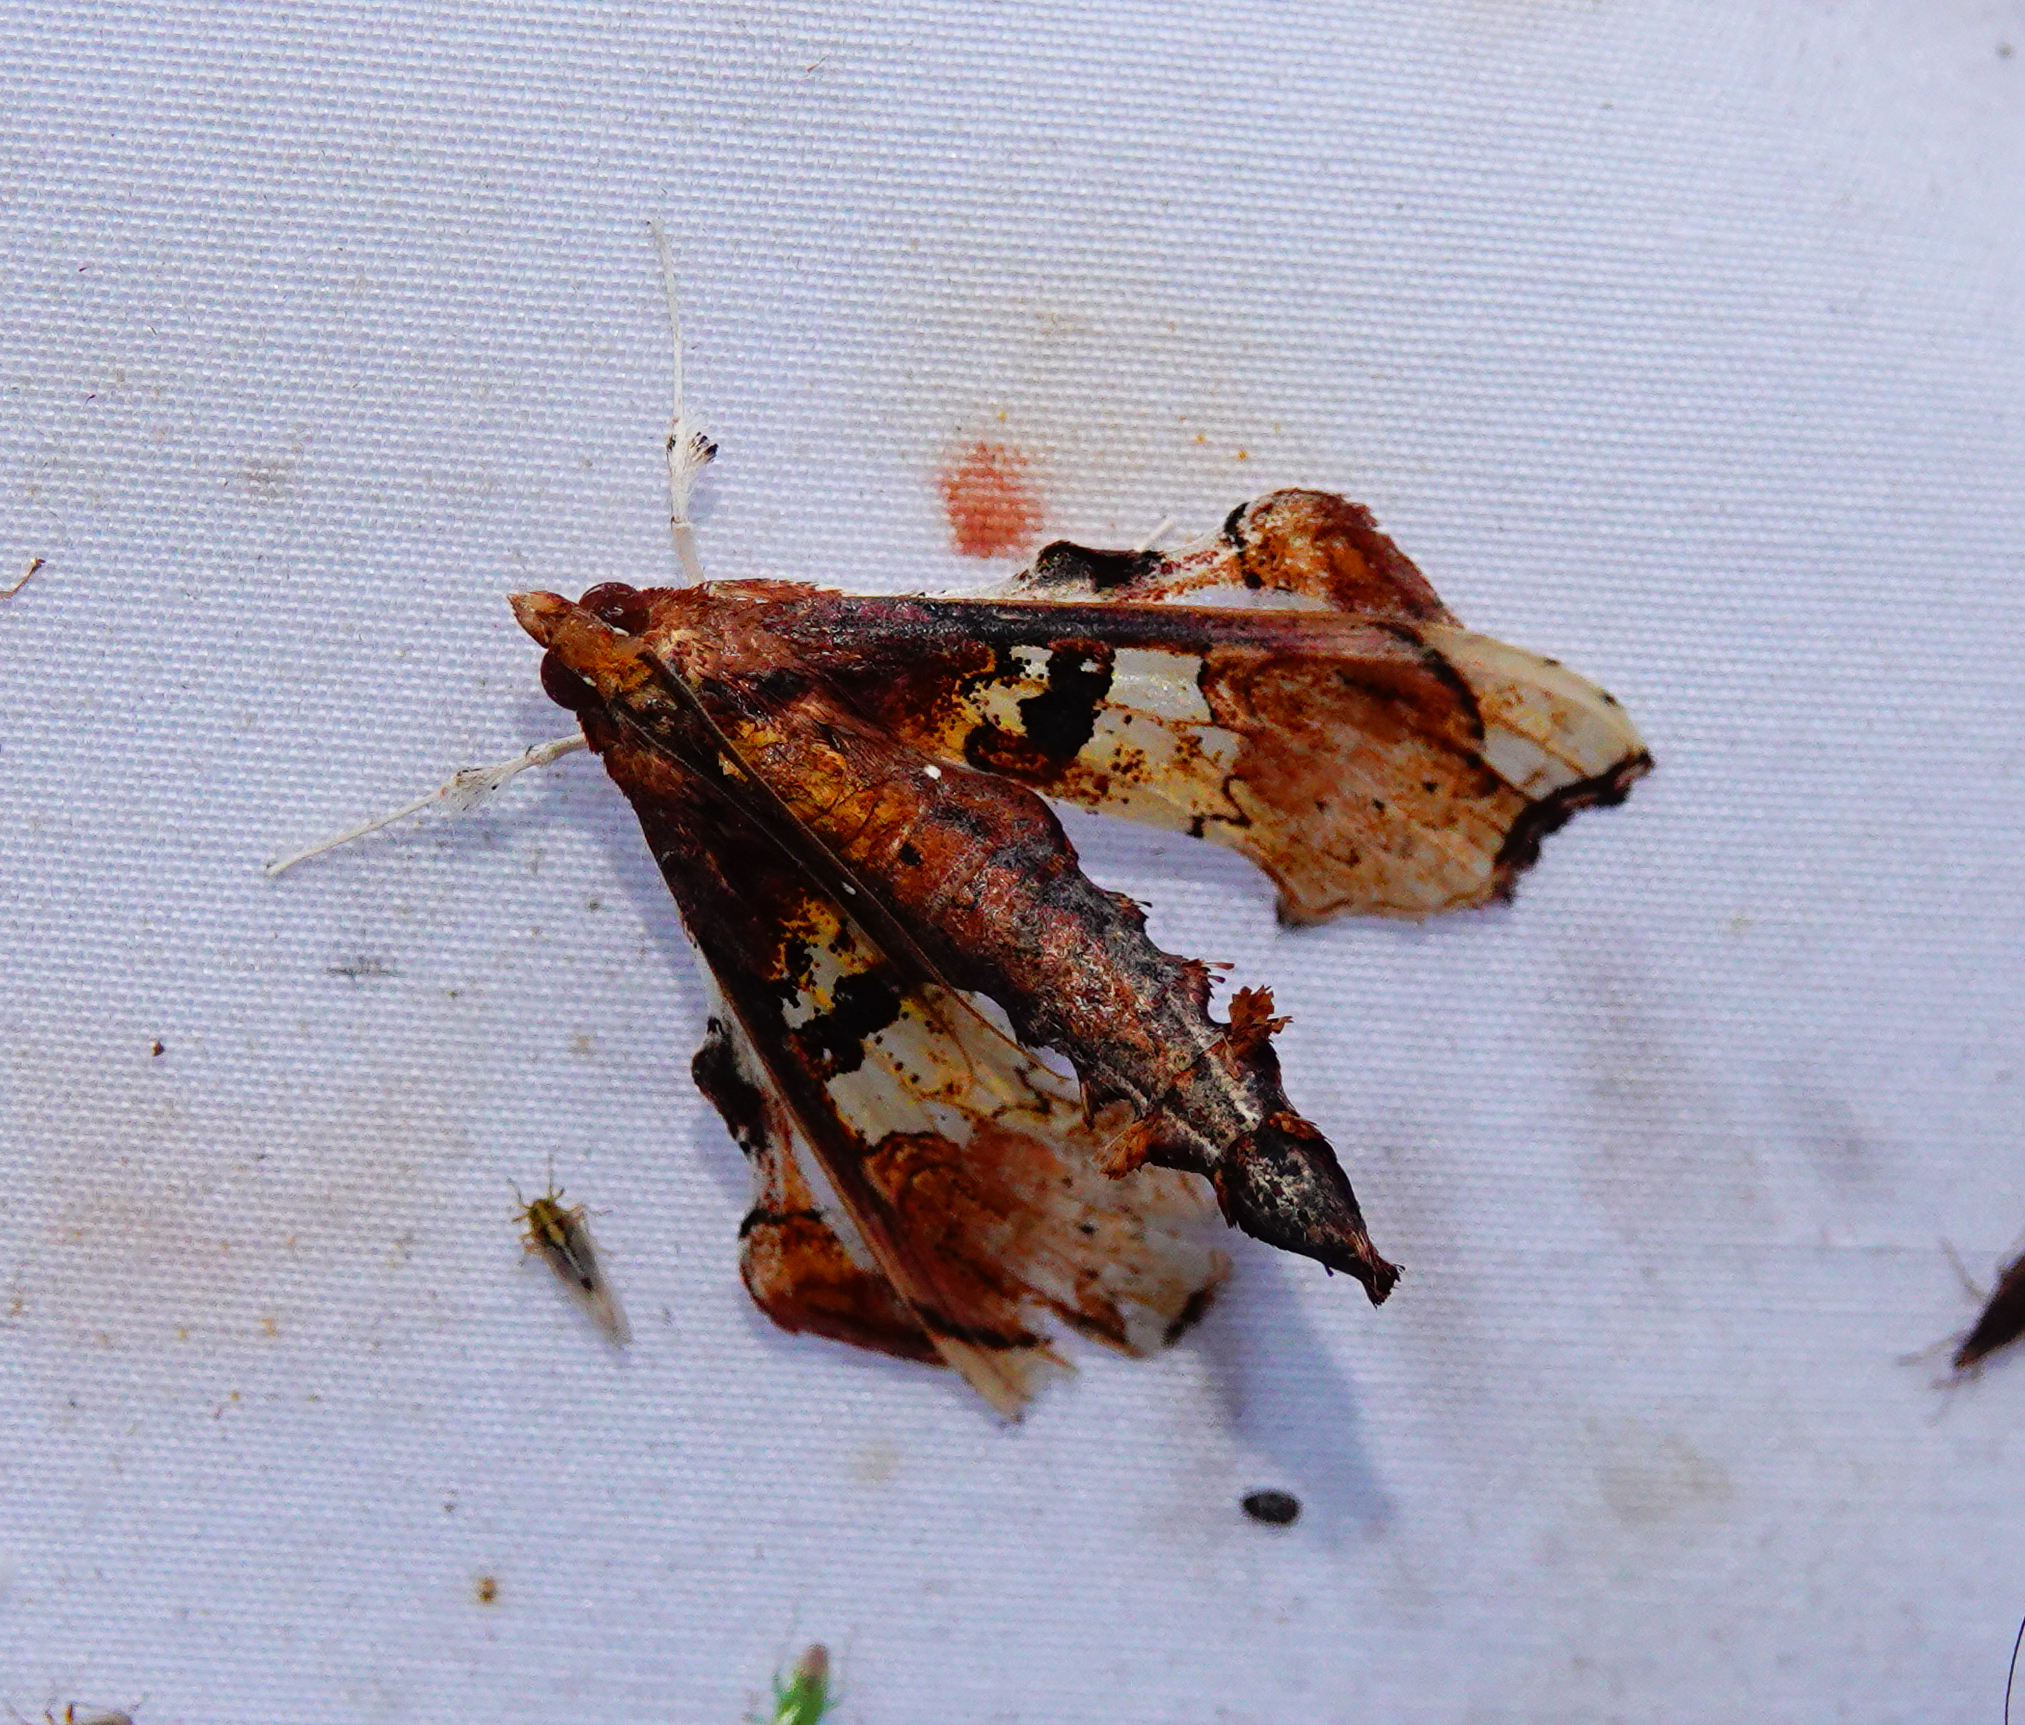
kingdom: Animalia
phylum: Arthropoda
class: Insecta
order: Lepidoptera
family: Crambidae
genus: Terastia
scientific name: Terastia egialealis
